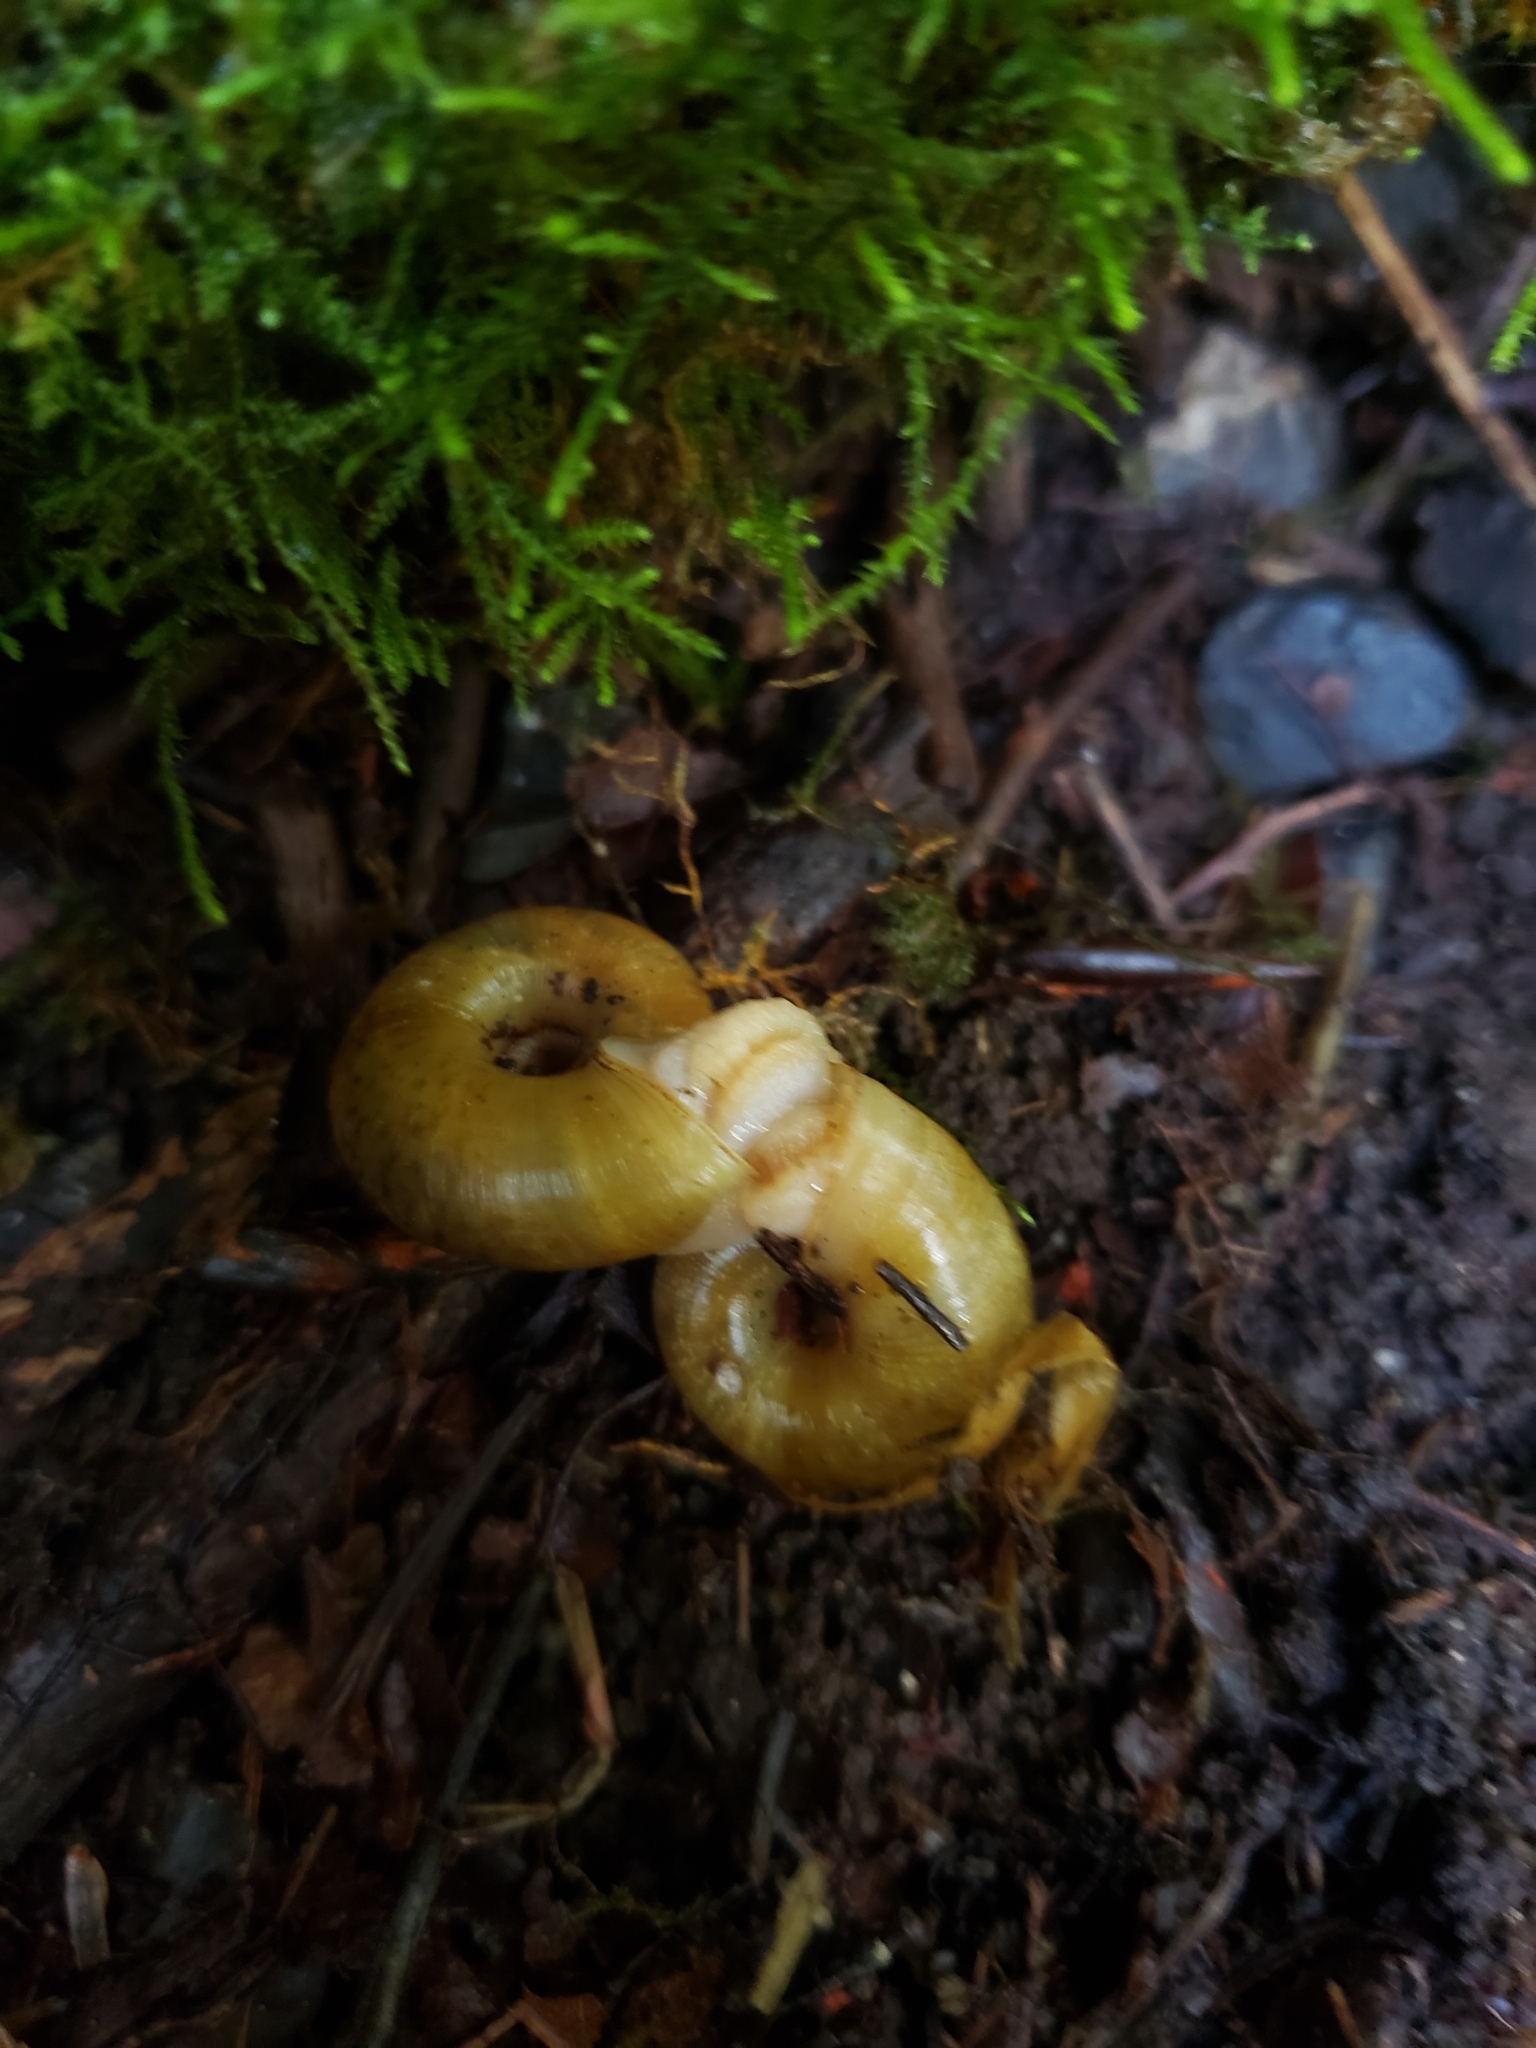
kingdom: Animalia
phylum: Mollusca
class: Gastropoda
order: Stylommatophora
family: Haplotrematidae
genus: Haplotrema
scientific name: Haplotrema vancouverense
